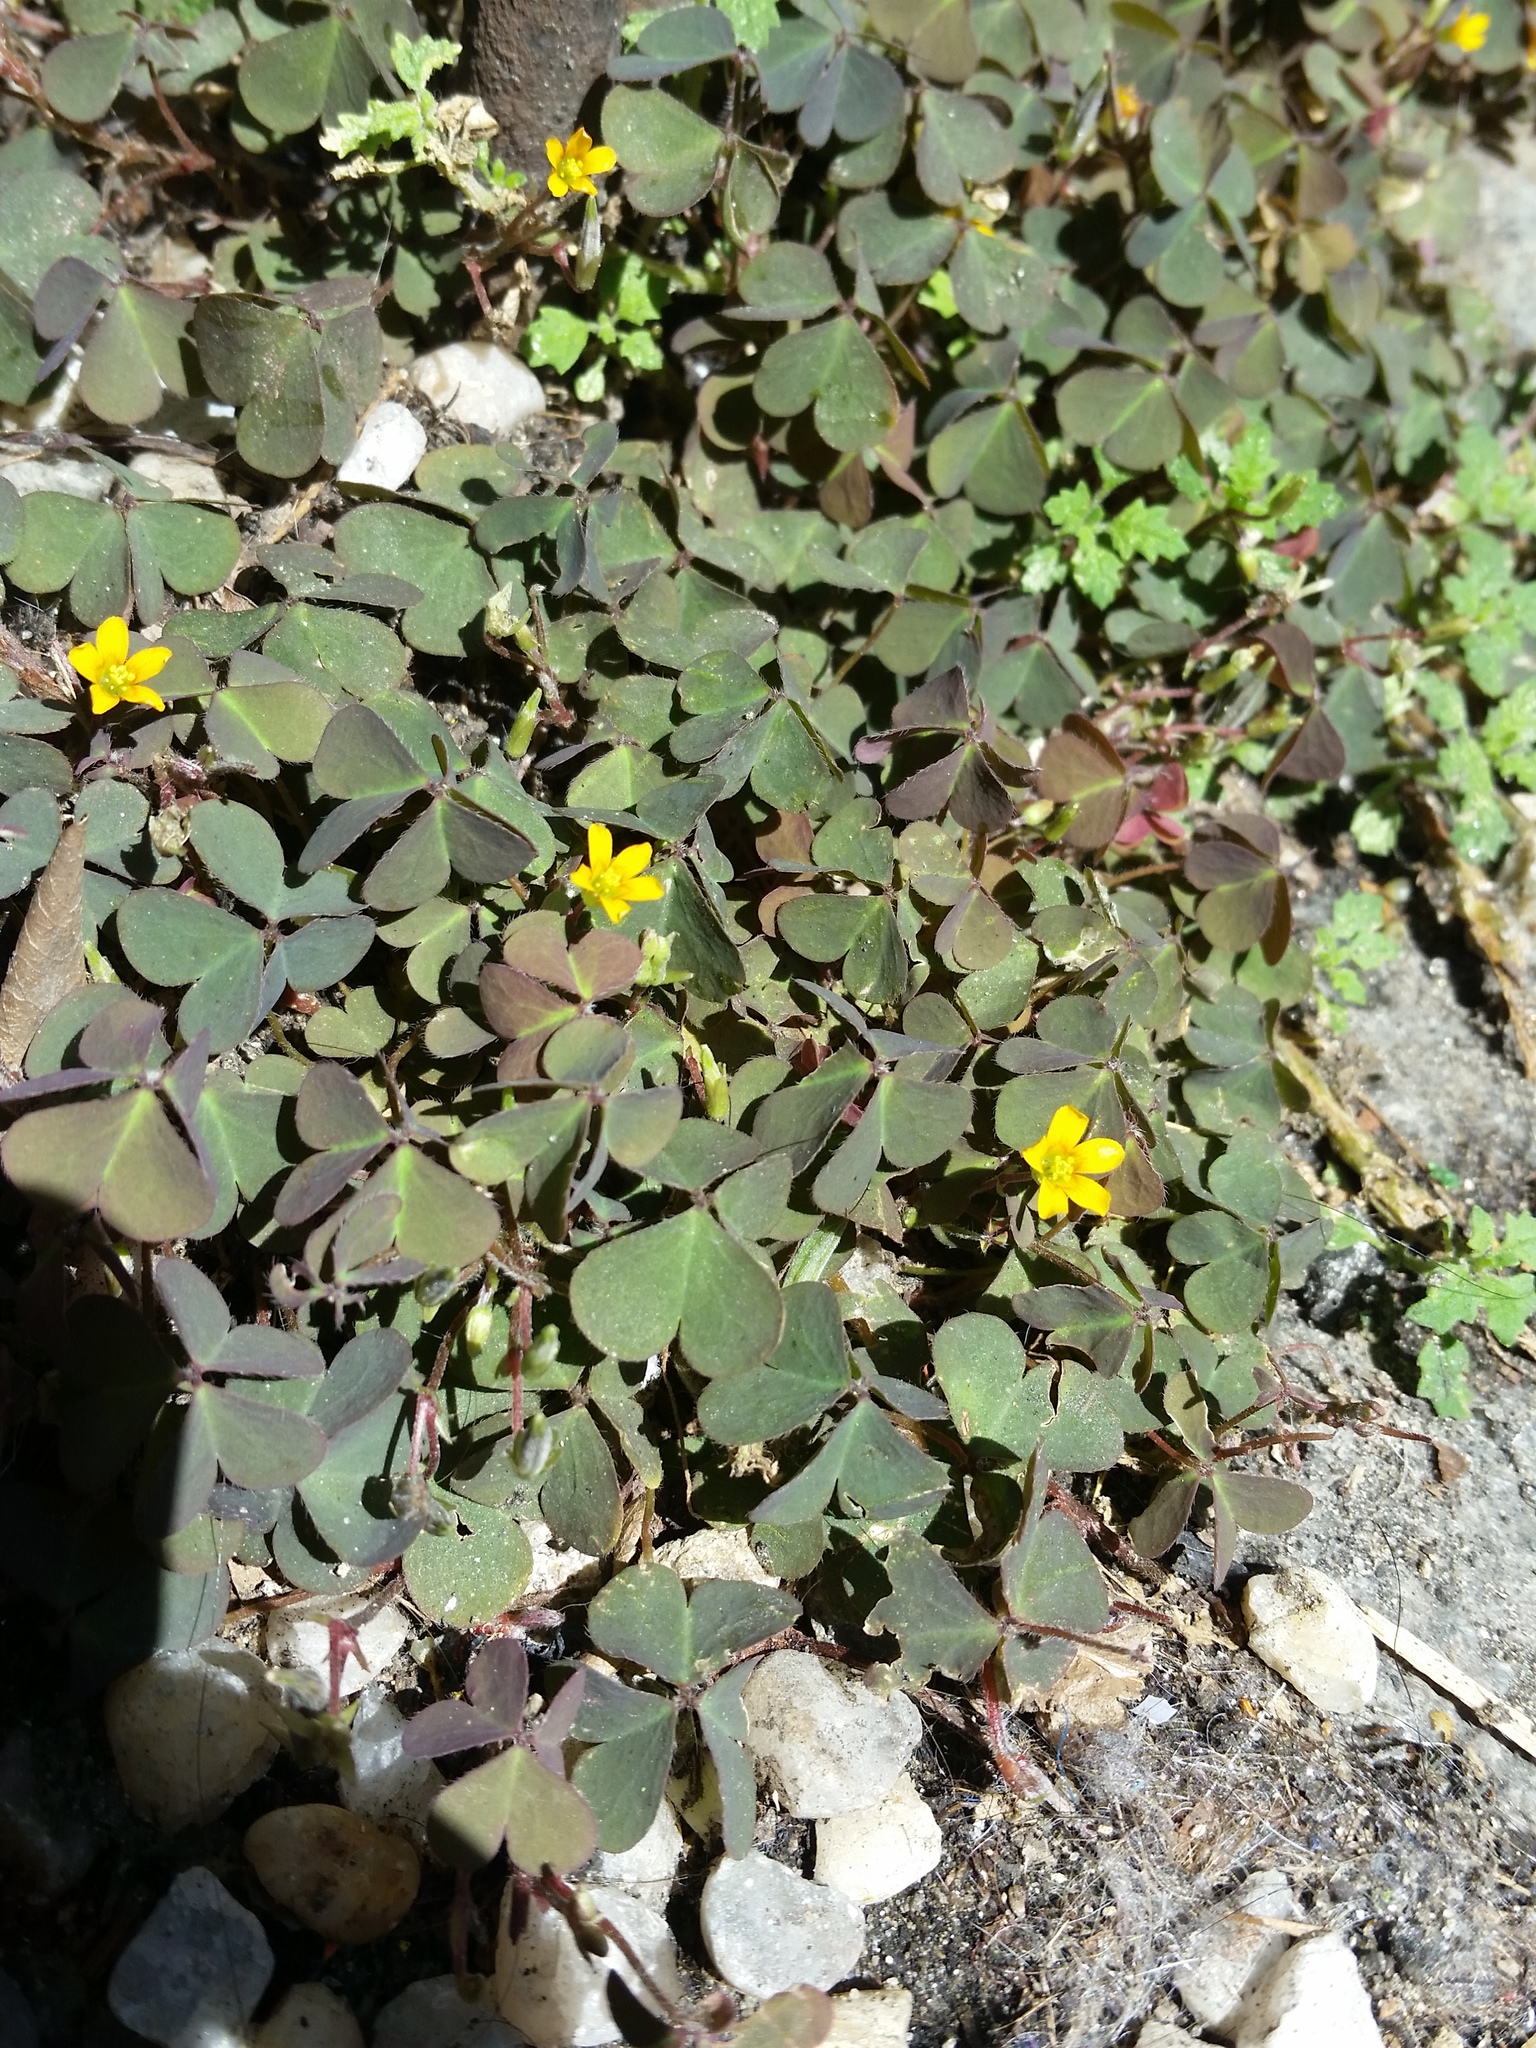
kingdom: Plantae
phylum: Tracheophyta
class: Magnoliopsida
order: Oxalidales
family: Oxalidaceae
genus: Oxalis
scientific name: Oxalis corniculata
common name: Procumbent yellow-sorrel
